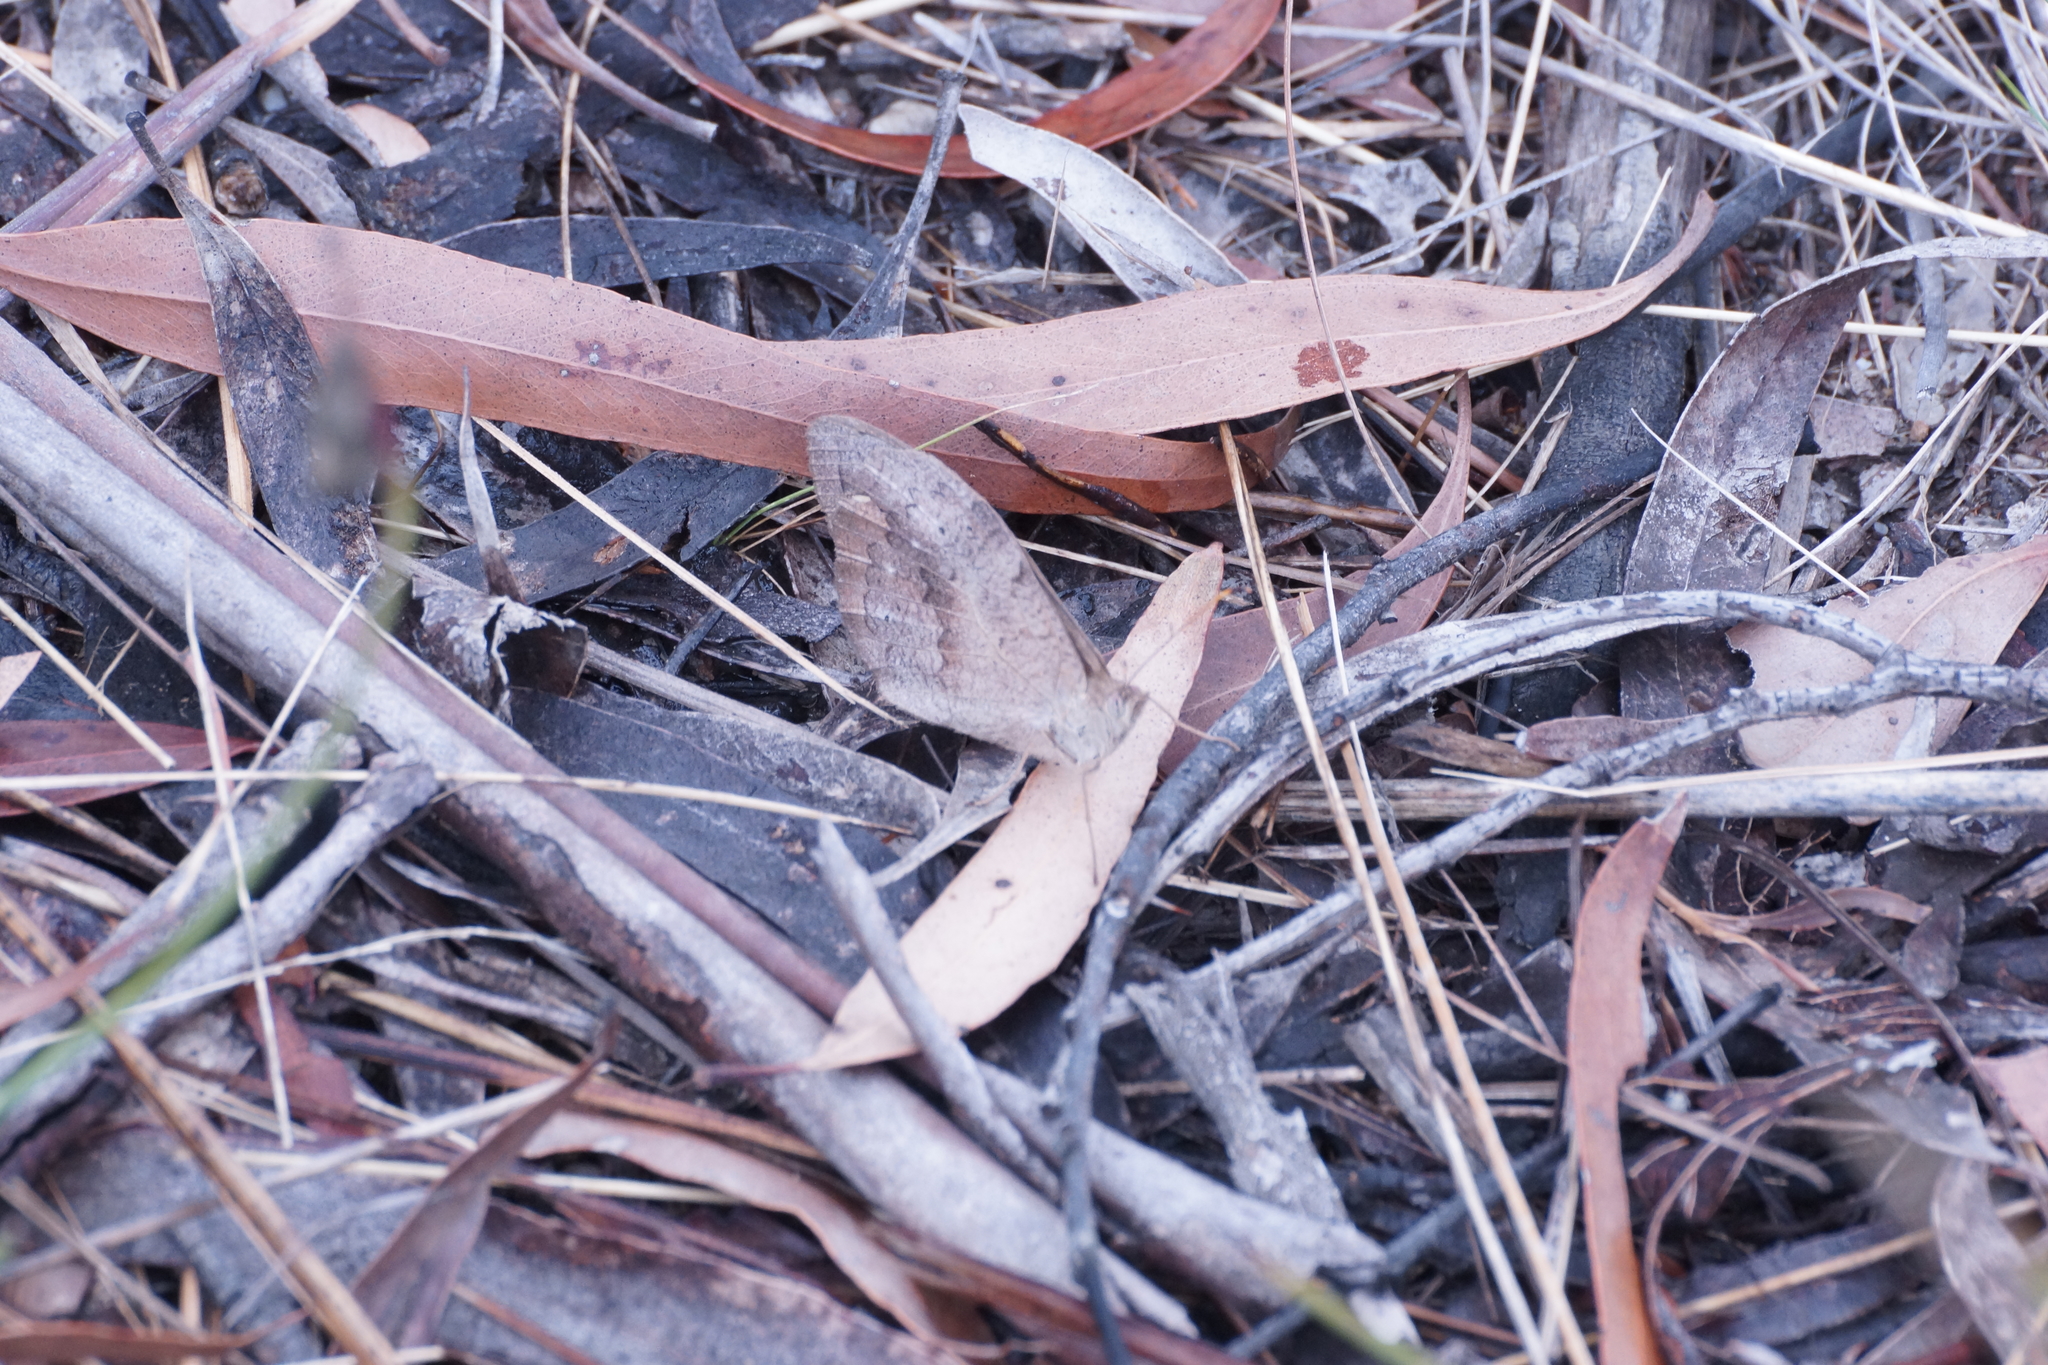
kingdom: Animalia
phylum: Arthropoda
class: Insecta
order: Lepidoptera
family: Nymphalidae
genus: Heteronympha
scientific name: Heteronympha merope
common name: Common brown
